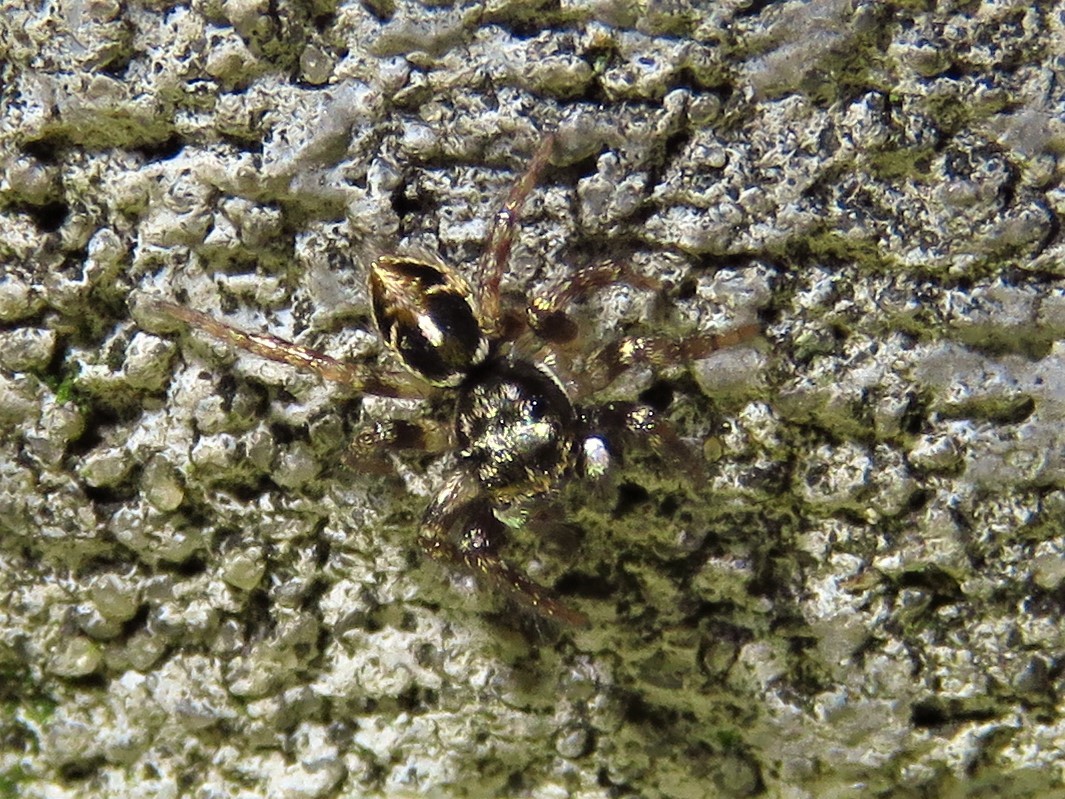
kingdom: Animalia
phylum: Arthropoda
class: Arachnida
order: Araneae
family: Salticidae
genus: Anasaitis
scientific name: Anasaitis canosa
